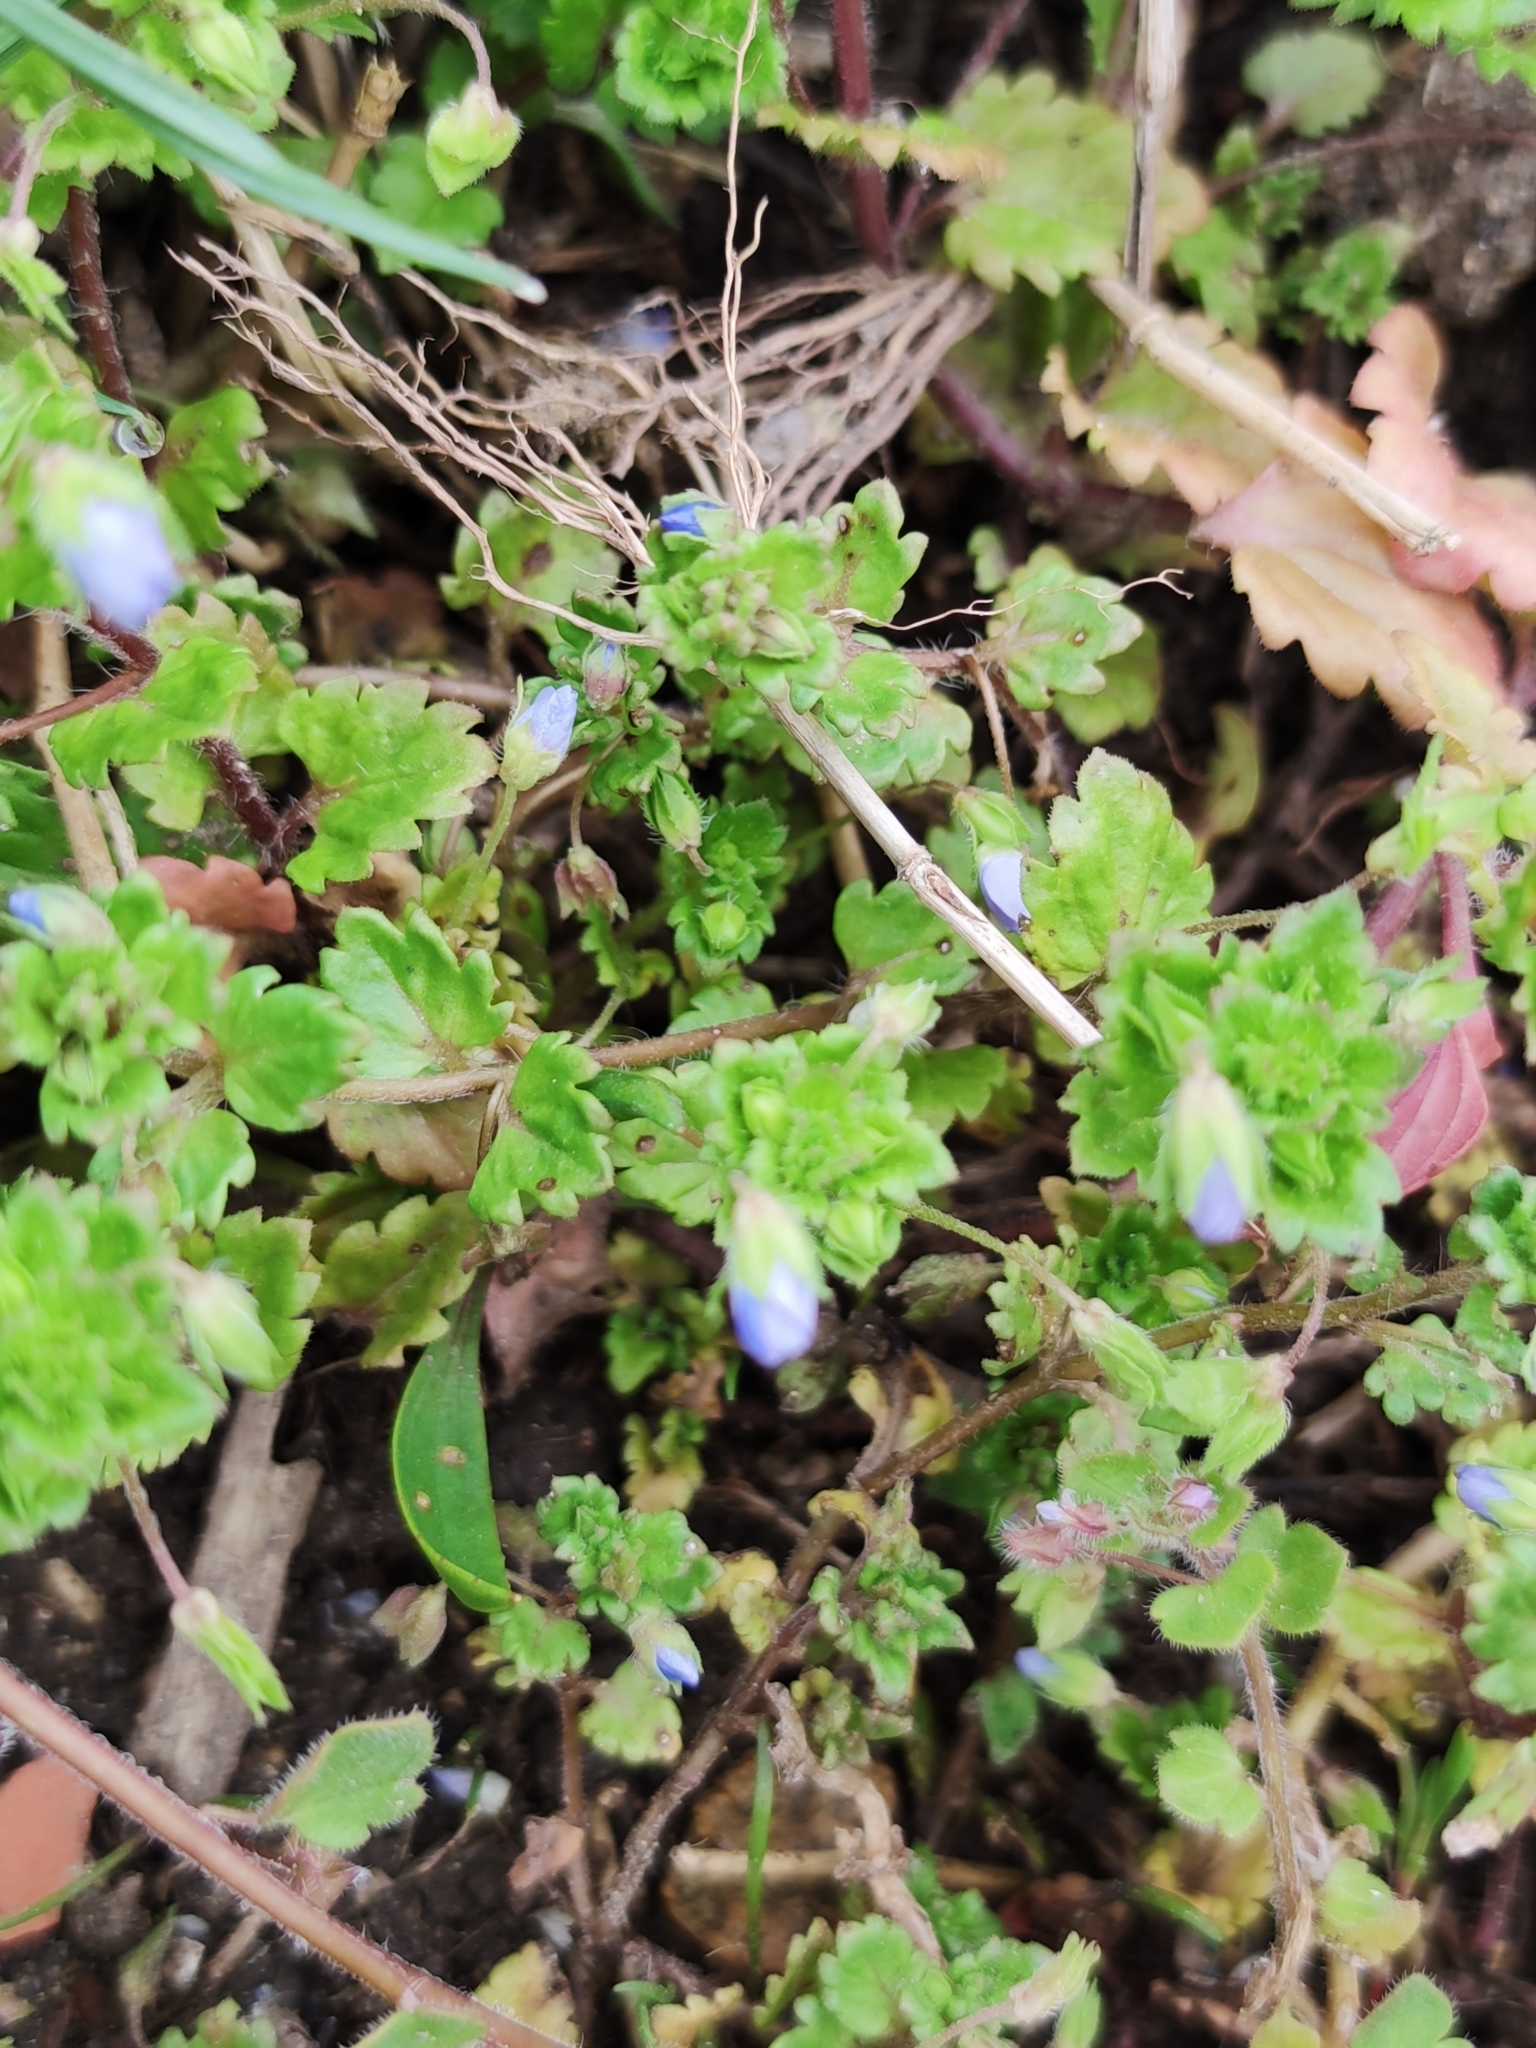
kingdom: Plantae
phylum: Tracheophyta
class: Magnoliopsida
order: Lamiales
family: Plantaginaceae
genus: Veronica
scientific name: Veronica persica
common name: Common field-speedwell
